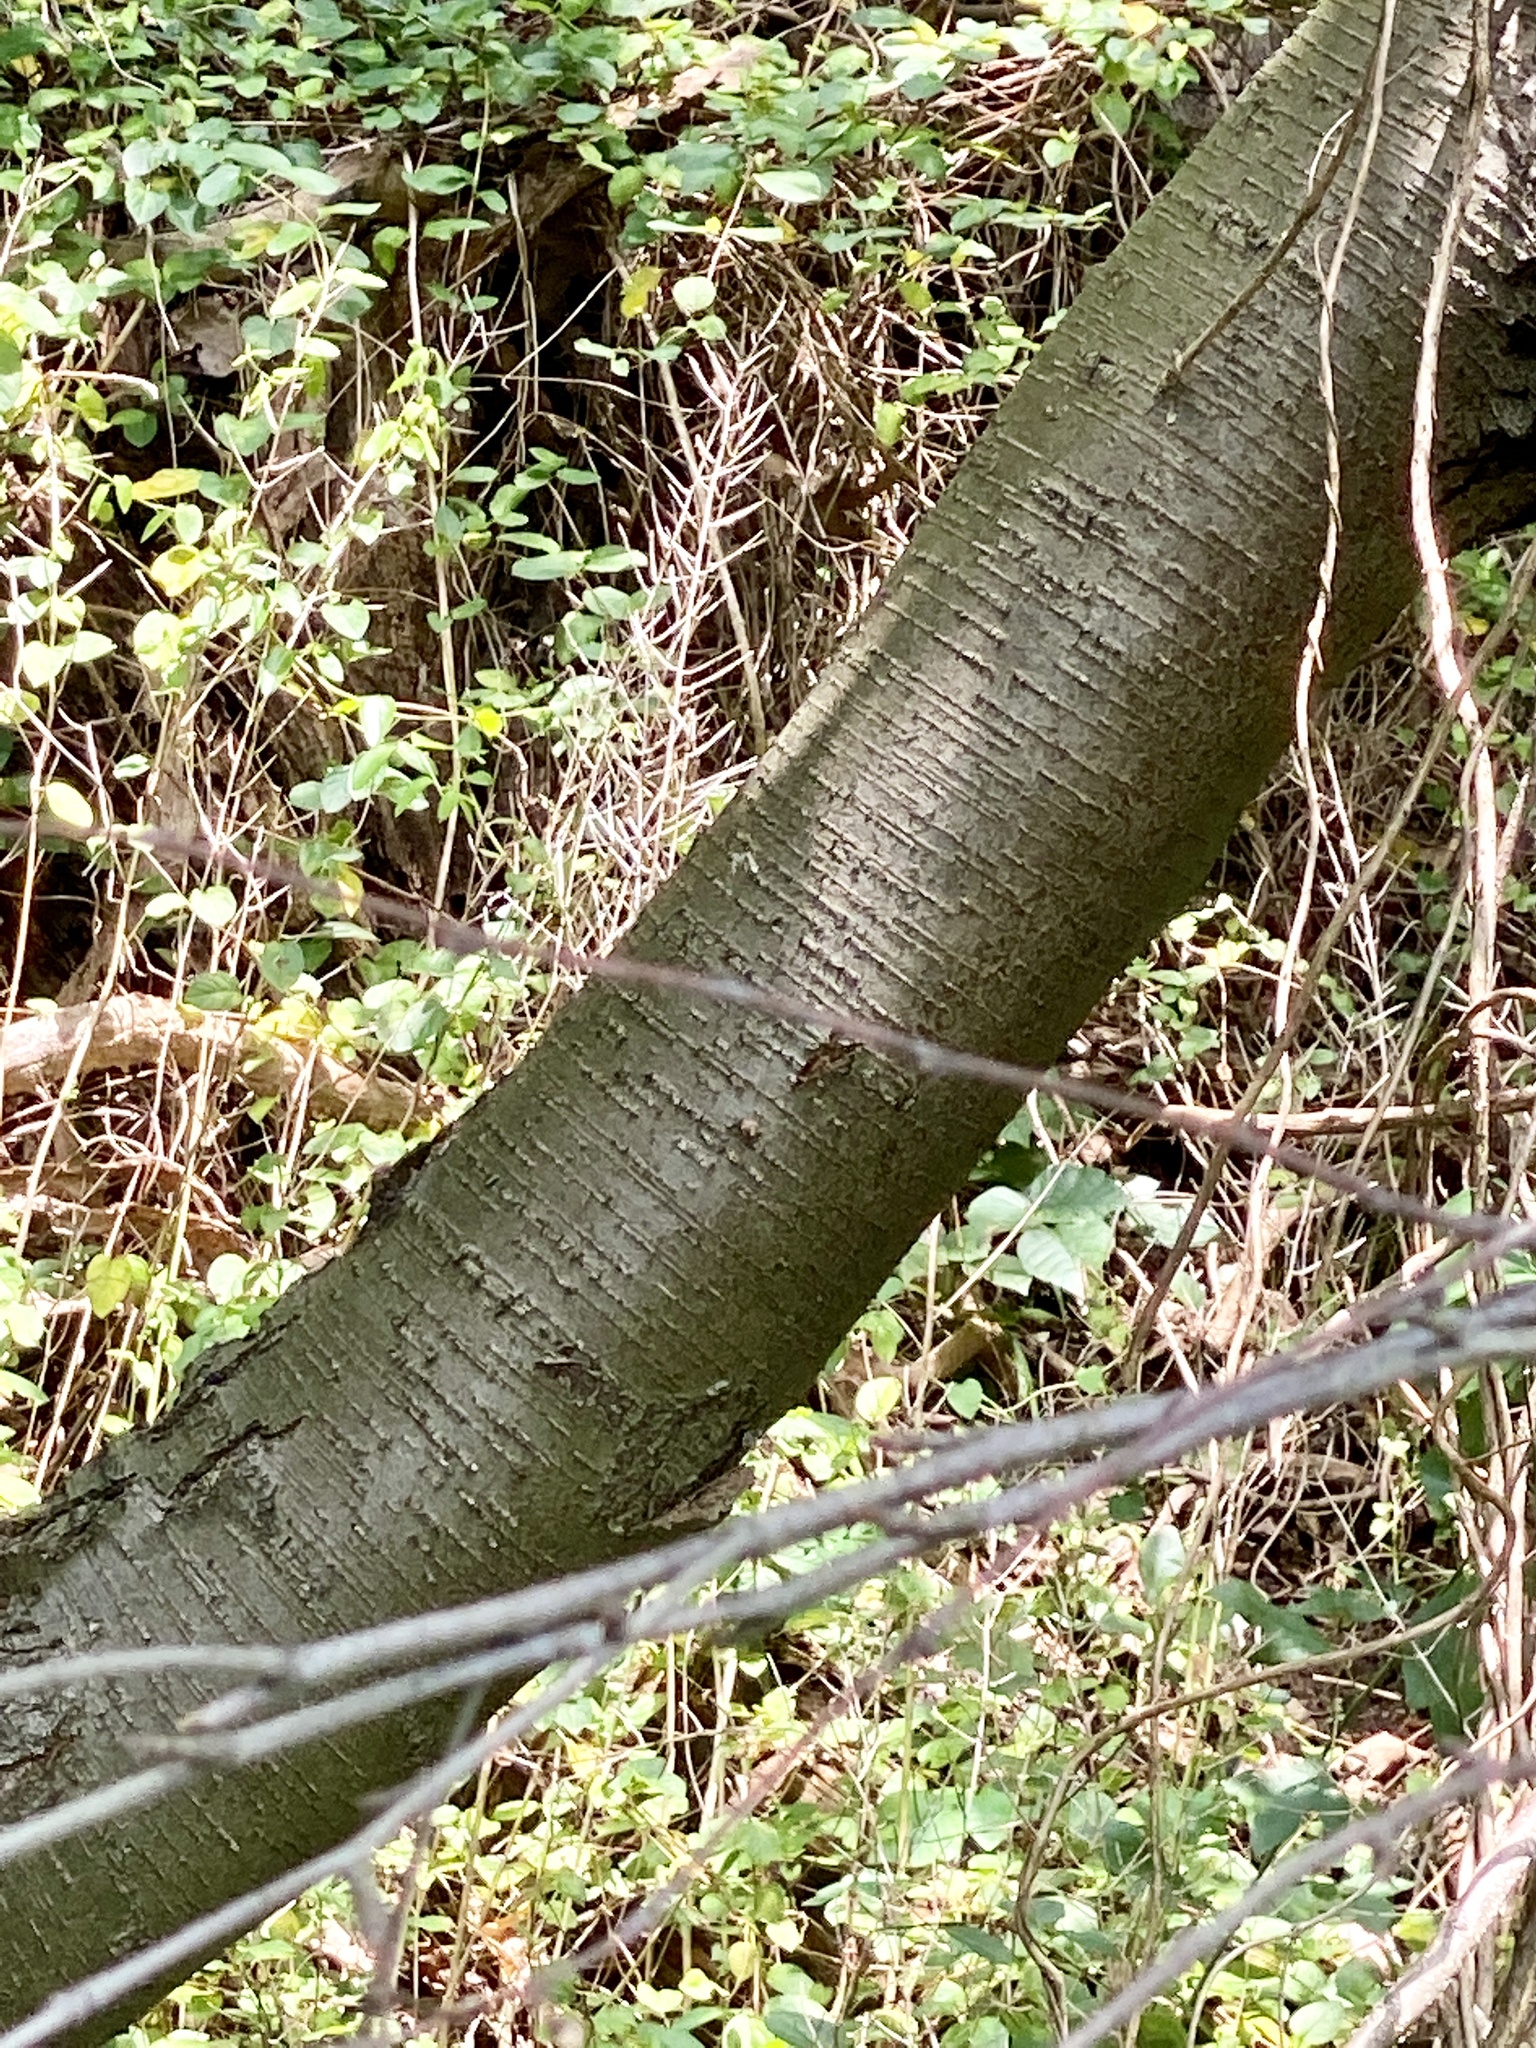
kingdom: Plantae
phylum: Tracheophyta
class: Magnoliopsida
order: Fagales
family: Betulaceae
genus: Betula
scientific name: Betula lenta
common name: Black birch
